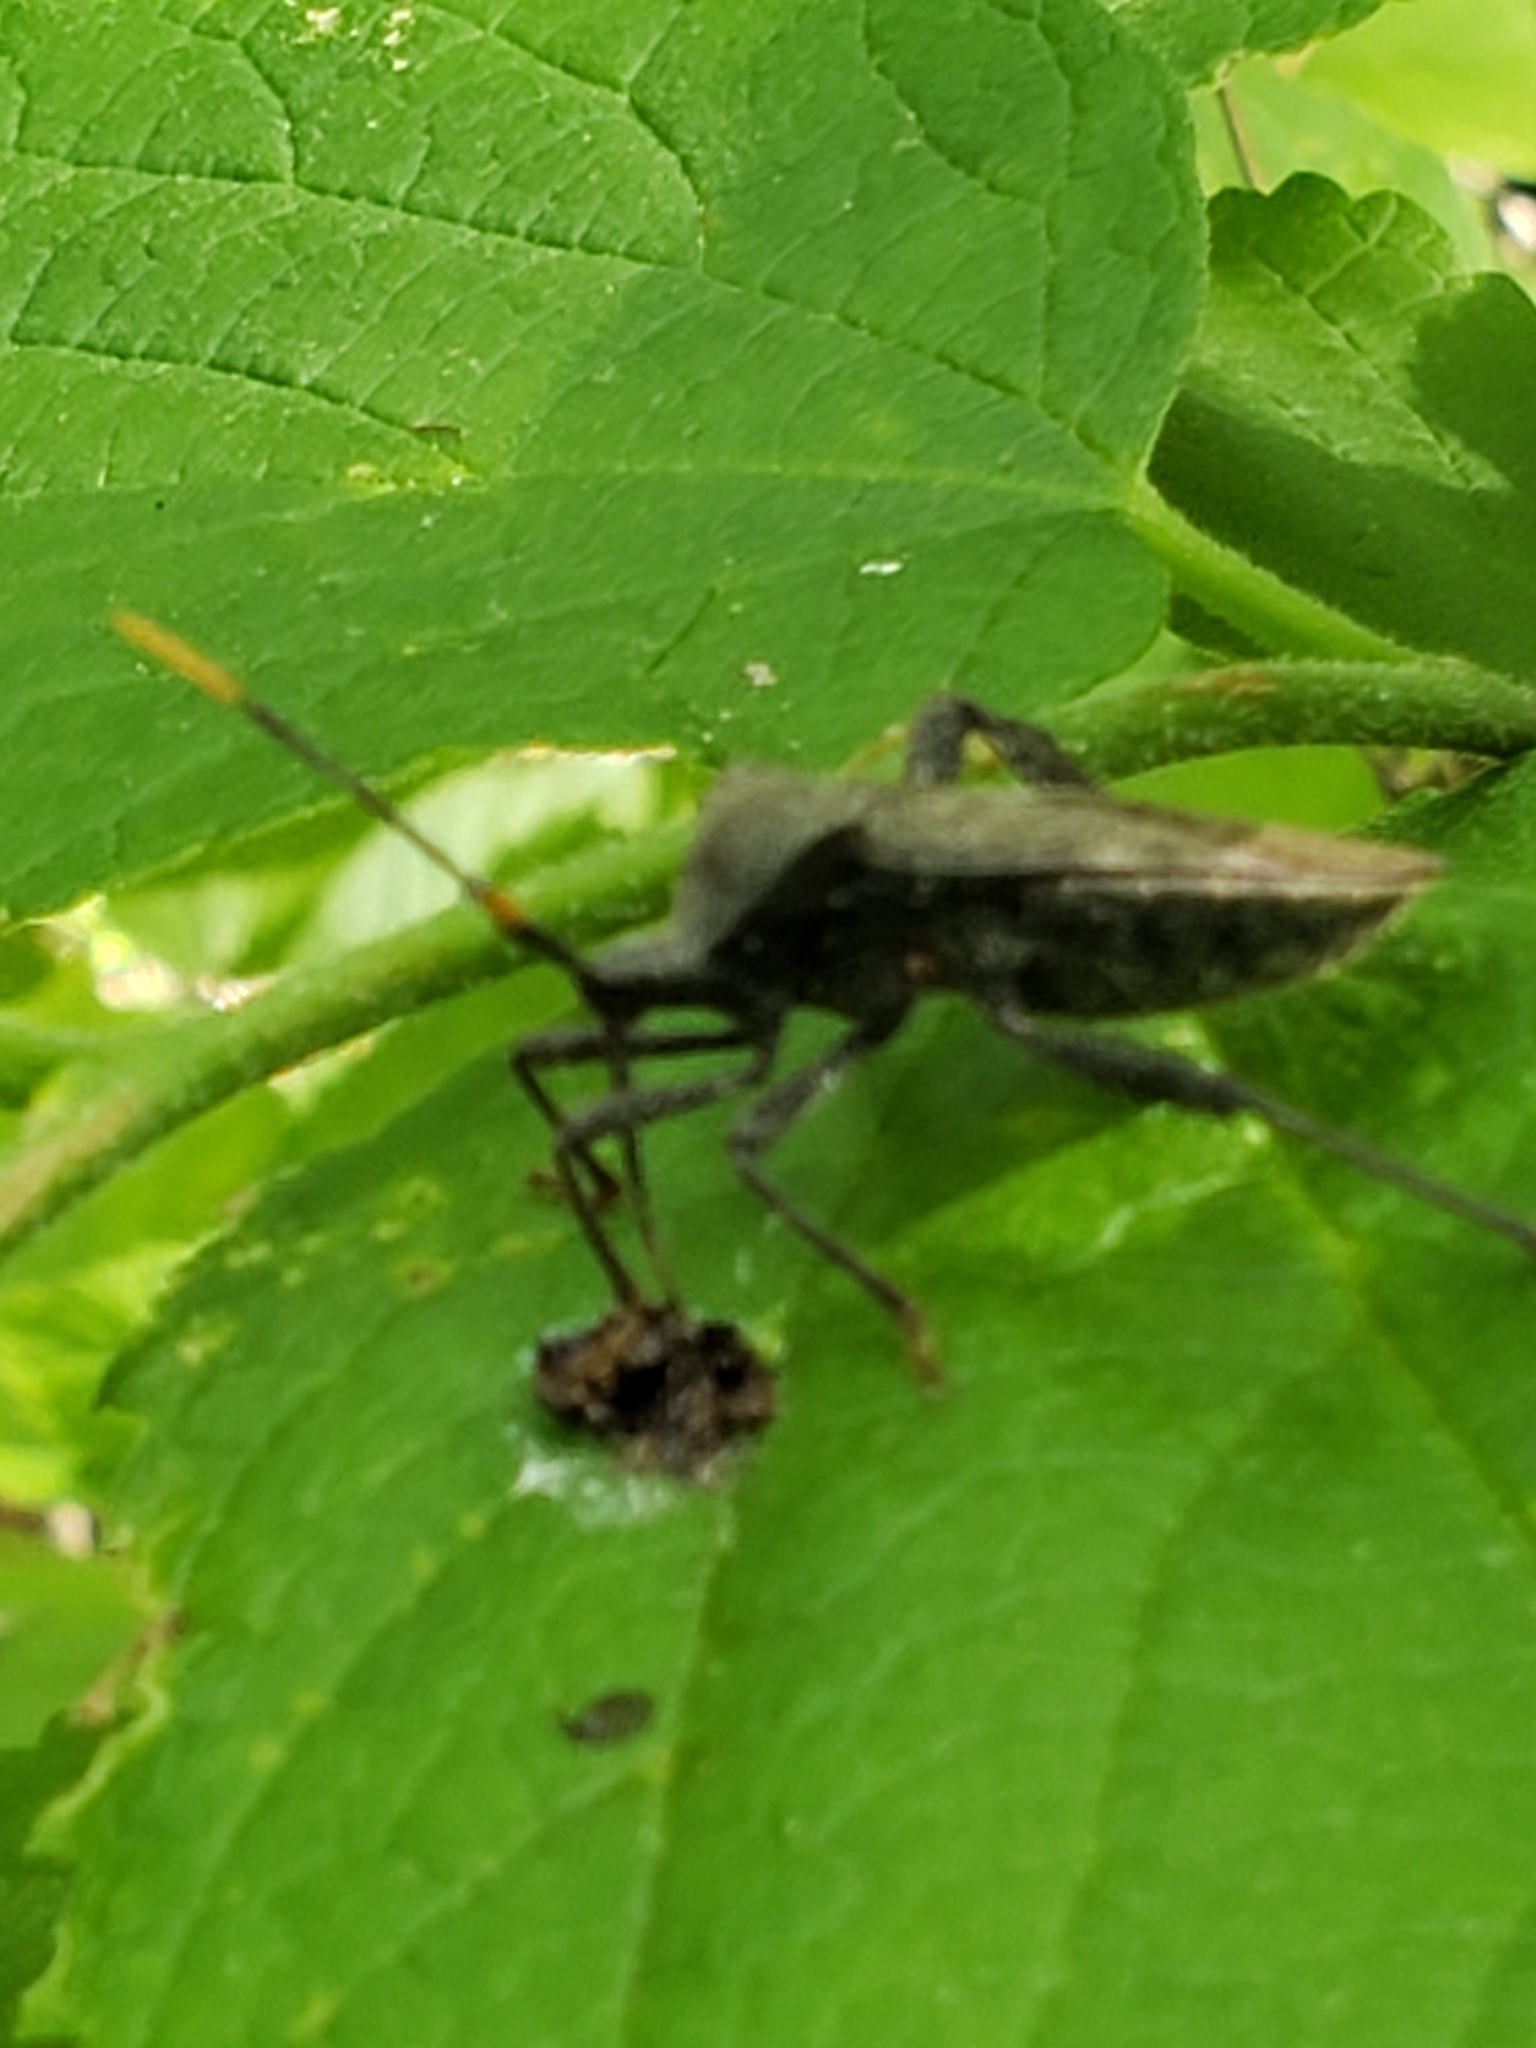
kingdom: Animalia
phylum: Arthropoda
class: Insecta
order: Hemiptera
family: Coreidae
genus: Acanthocephala
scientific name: Acanthocephala terminalis
